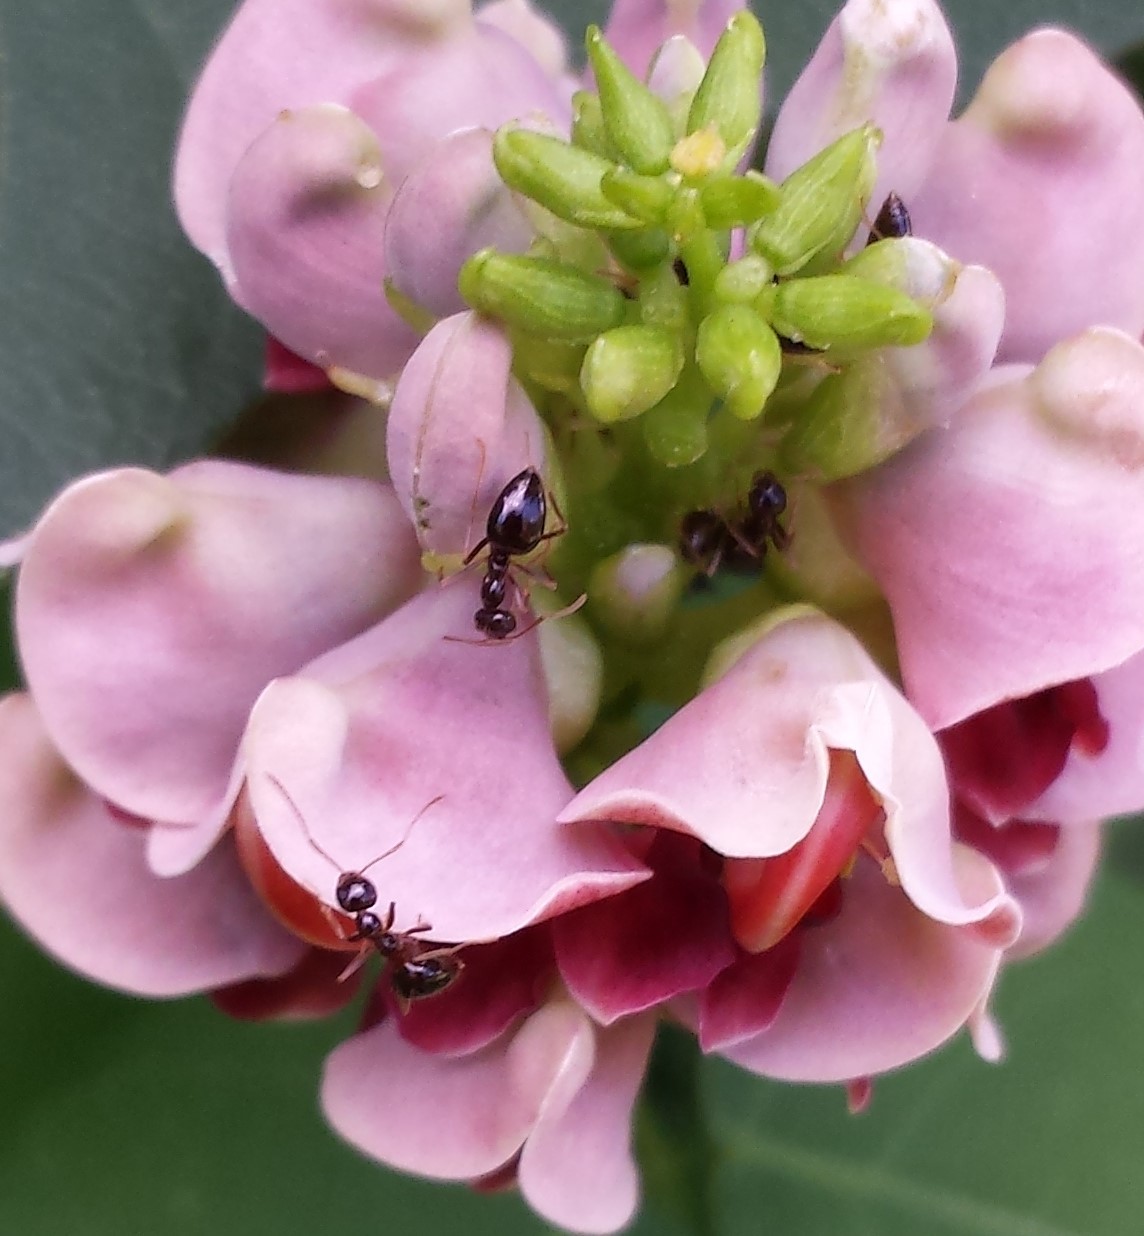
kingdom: Animalia
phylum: Arthropoda
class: Insecta
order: Hymenoptera
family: Formicidae
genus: Prenolepis
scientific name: Prenolepis imparis
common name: Small honey ant
